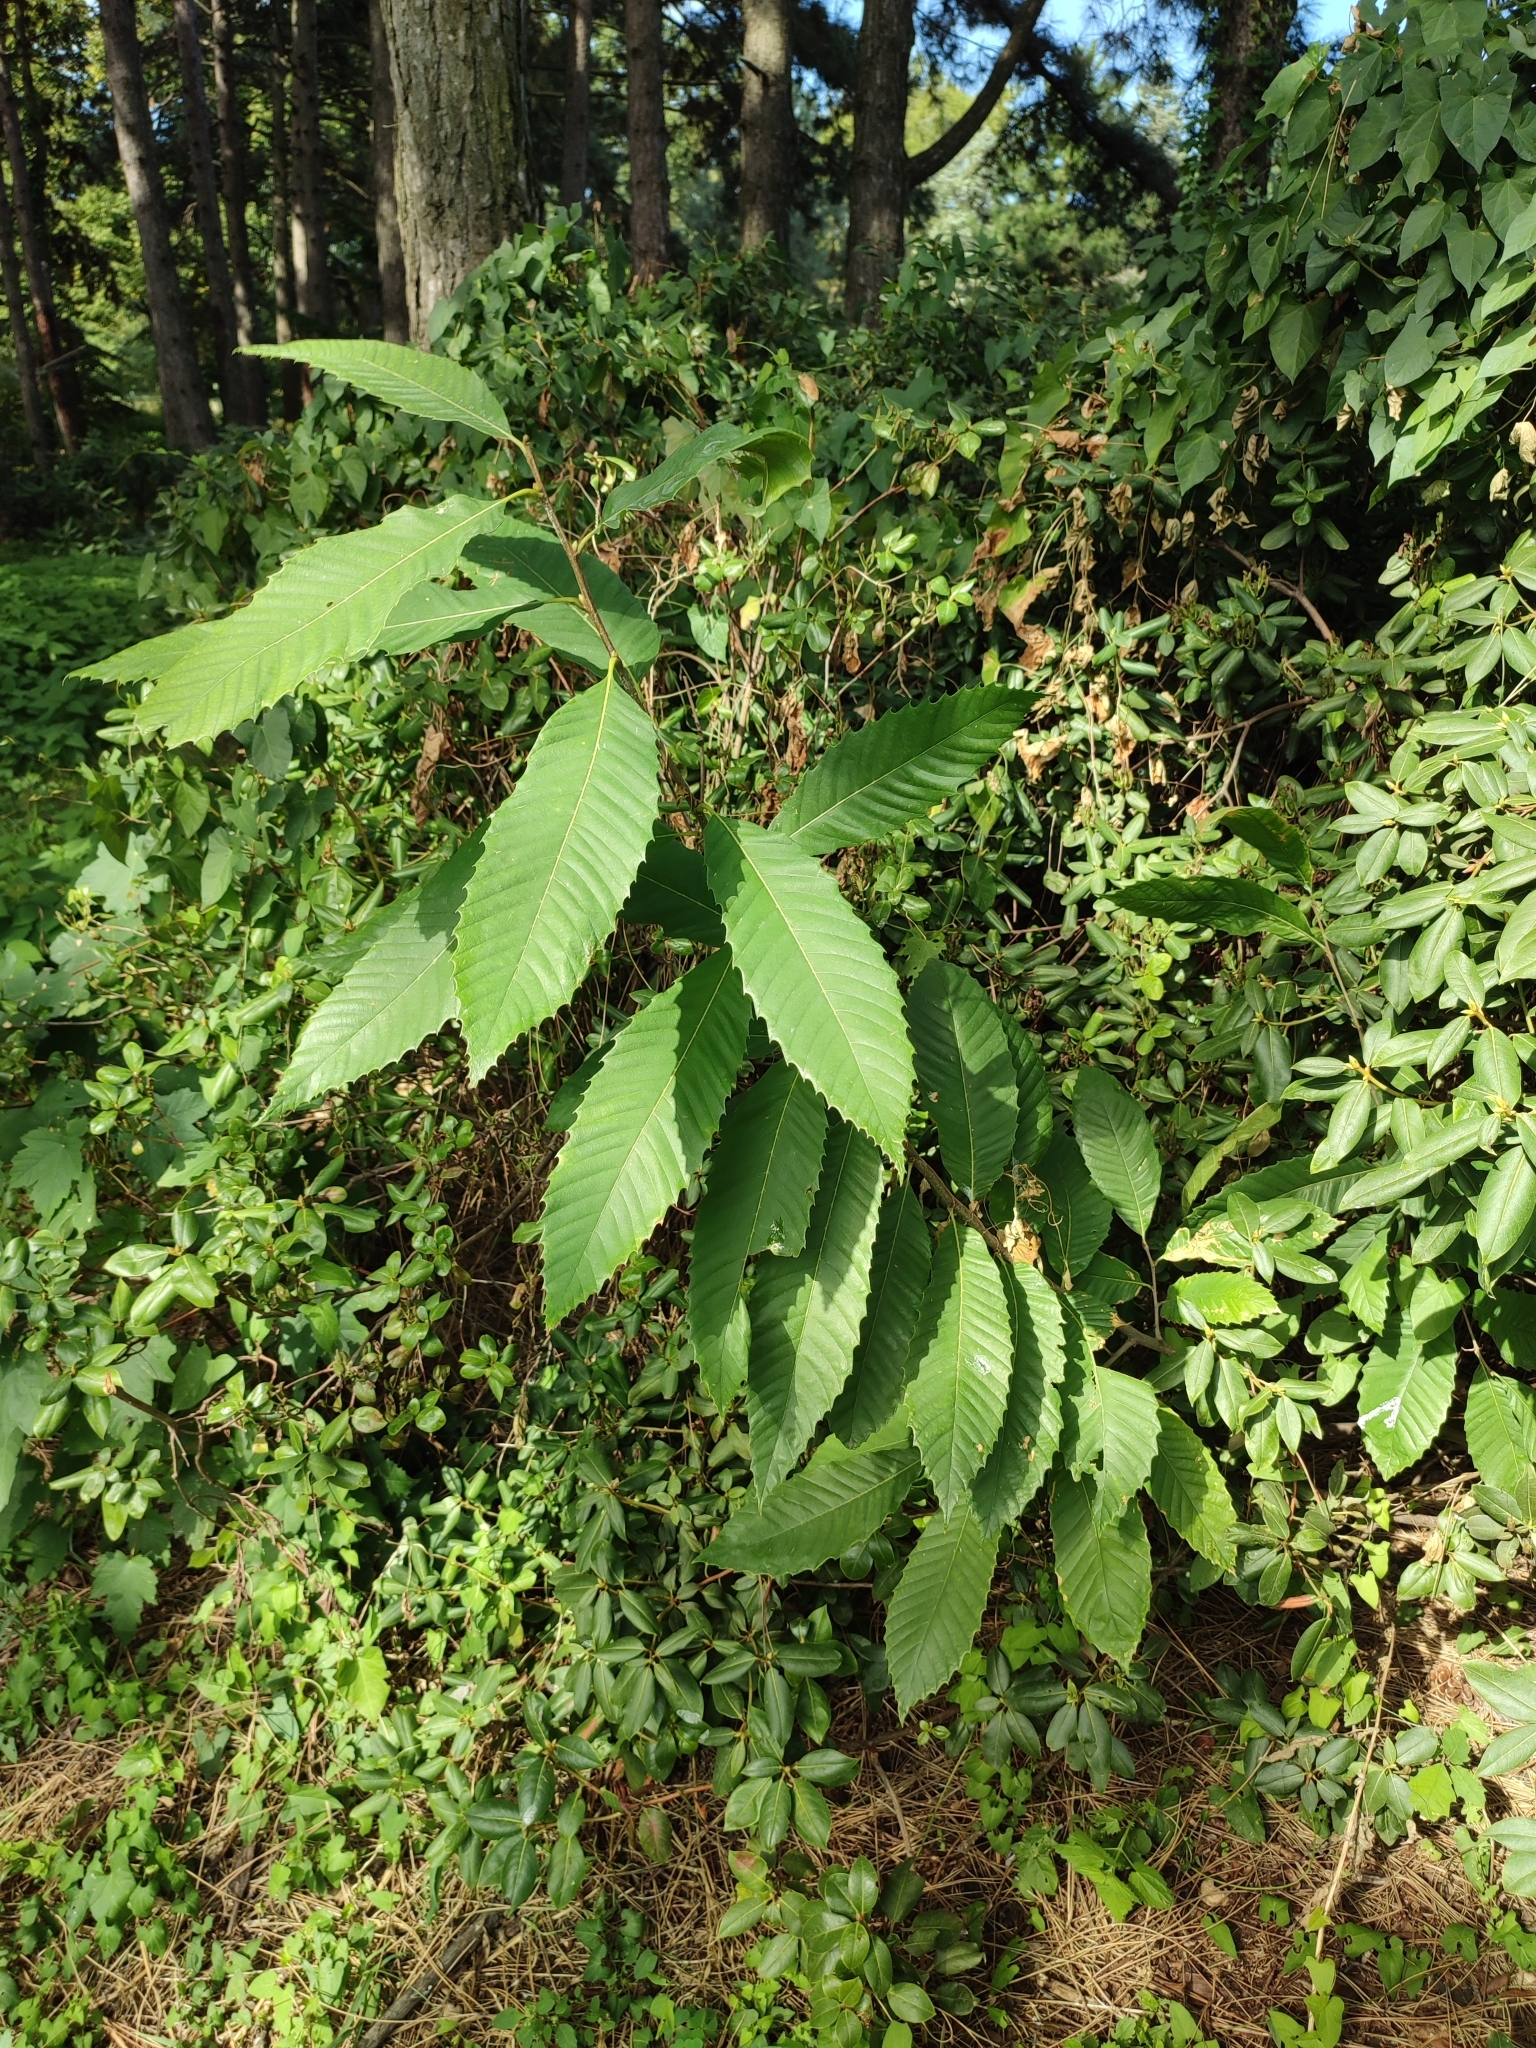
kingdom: Plantae
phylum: Tracheophyta
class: Magnoliopsida
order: Fagales
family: Fagaceae
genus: Castanea
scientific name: Castanea sativa
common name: Sweet chestnut
